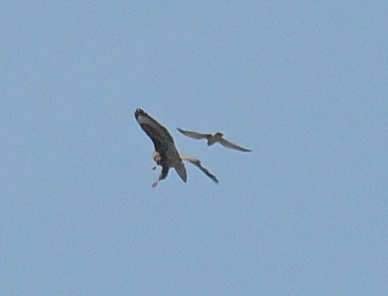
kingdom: Animalia
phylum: Chordata
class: Aves
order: Falconiformes
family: Falconidae
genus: Falco
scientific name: Falco tinnunculus
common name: Common kestrel
